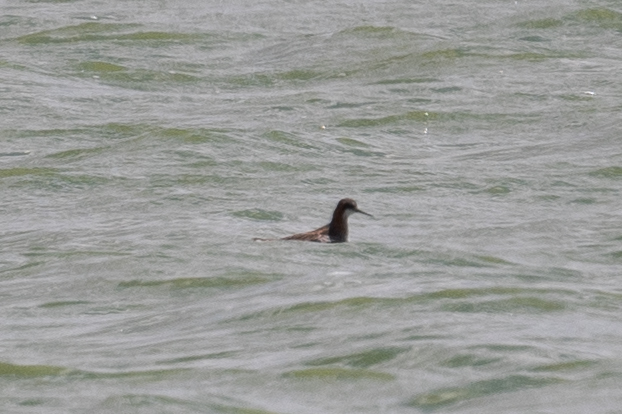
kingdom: Animalia
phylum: Chordata
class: Aves
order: Charadriiformes
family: Scolopacidae
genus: Phalaropus
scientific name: Phalaropus lobatus
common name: Red-necked phalarope
